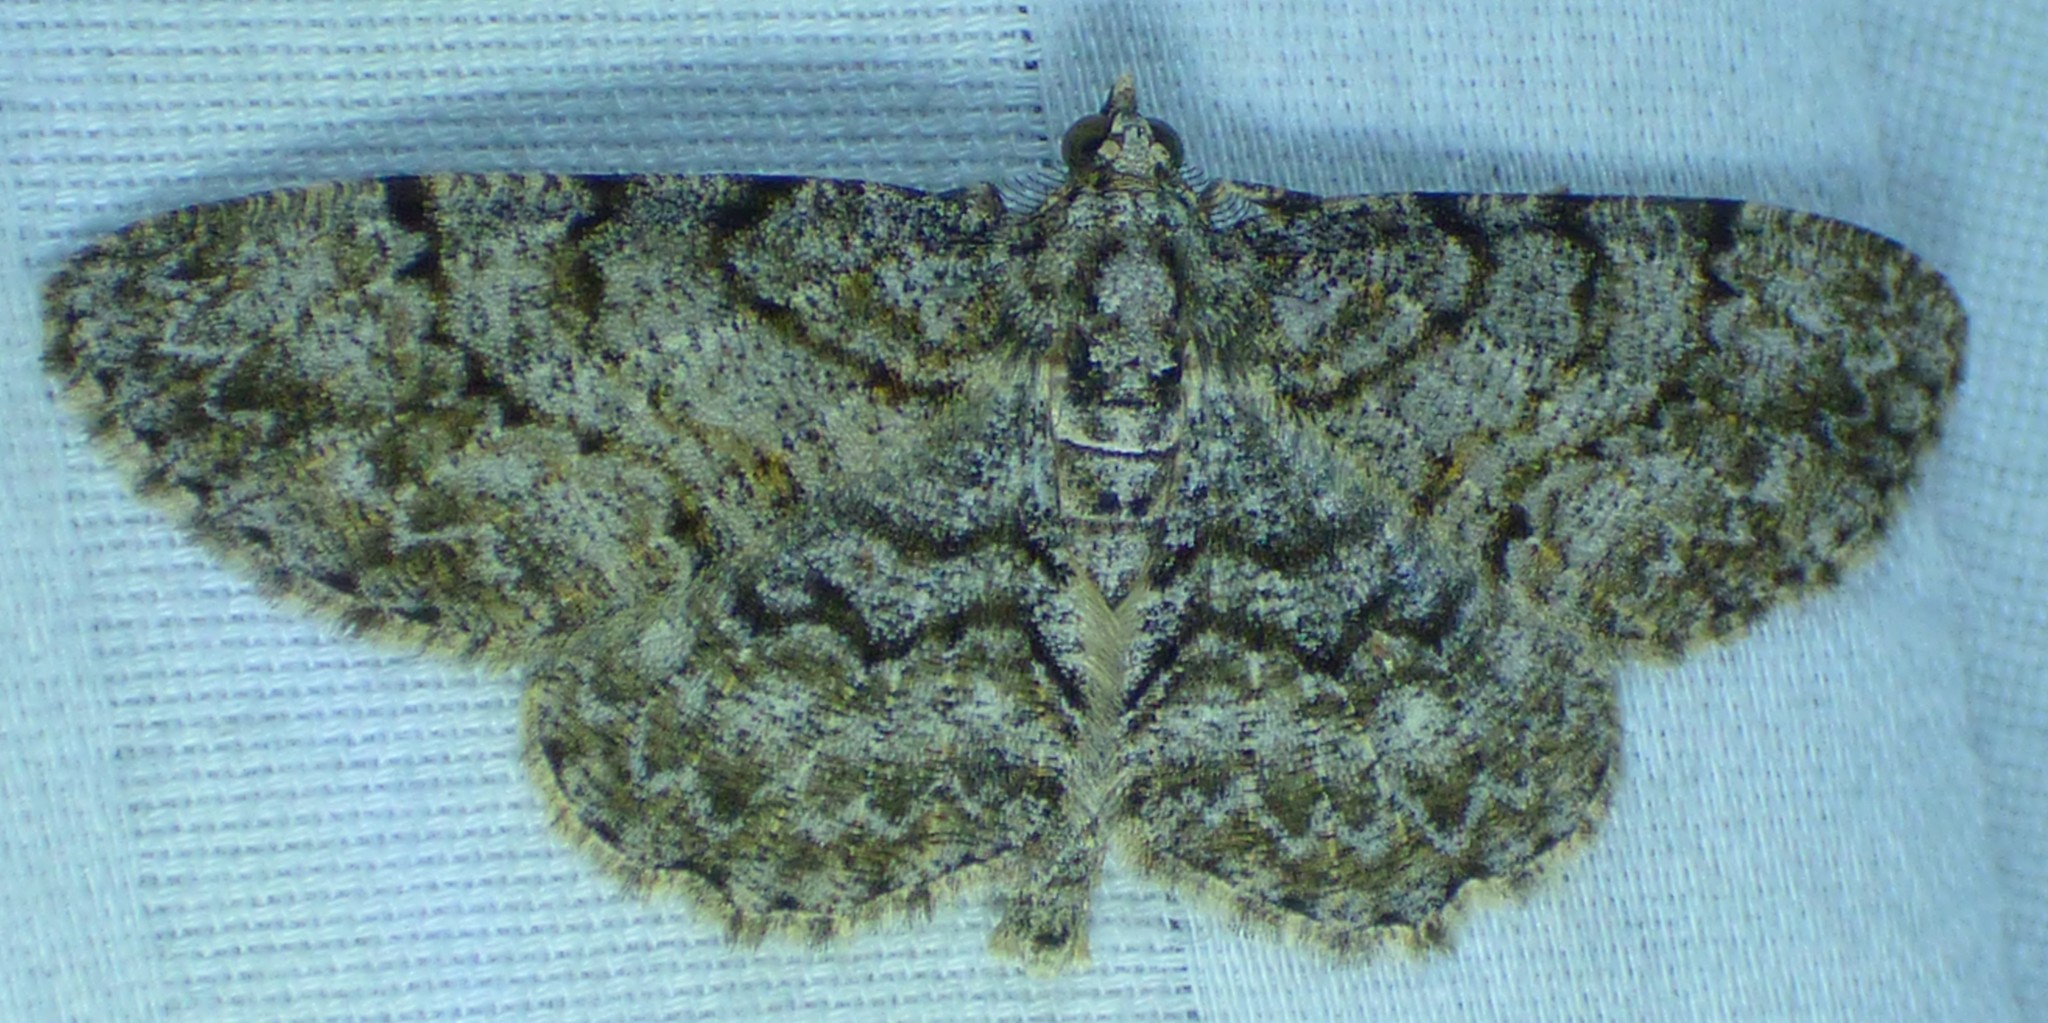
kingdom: Animalia
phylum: Arthropoda
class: Insecta
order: Lepidoptera
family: Geometridae
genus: Protoboarmia
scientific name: Protoboarmia porcelaria
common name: Porcelain gray
